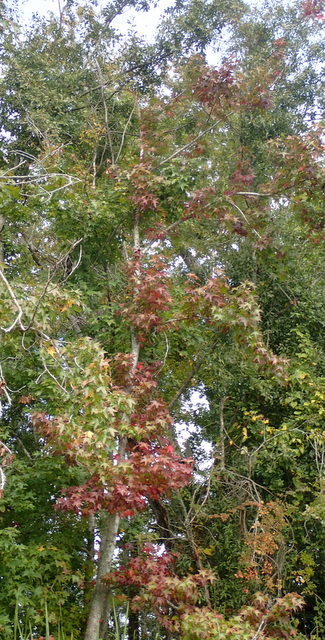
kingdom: Plantae
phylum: Tracheophyta
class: Magnoliopsida
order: Saxifragales
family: Altingiaceae
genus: Liquidambar
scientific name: Liquidambar styraciflua
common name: Sweet gum
